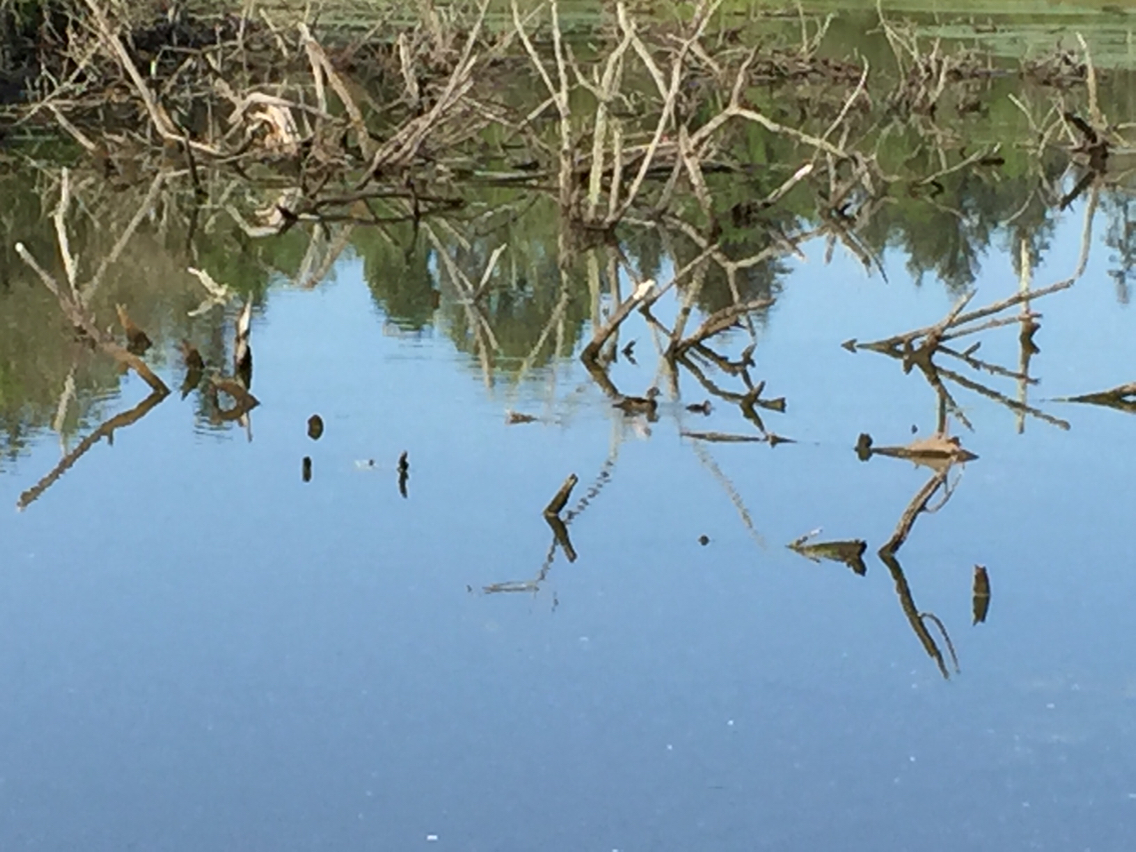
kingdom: Animalia
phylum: Chordata
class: Aves
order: Anseriformes
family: Anatidae
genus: Aix
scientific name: Aix sponsa
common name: Wood duck
